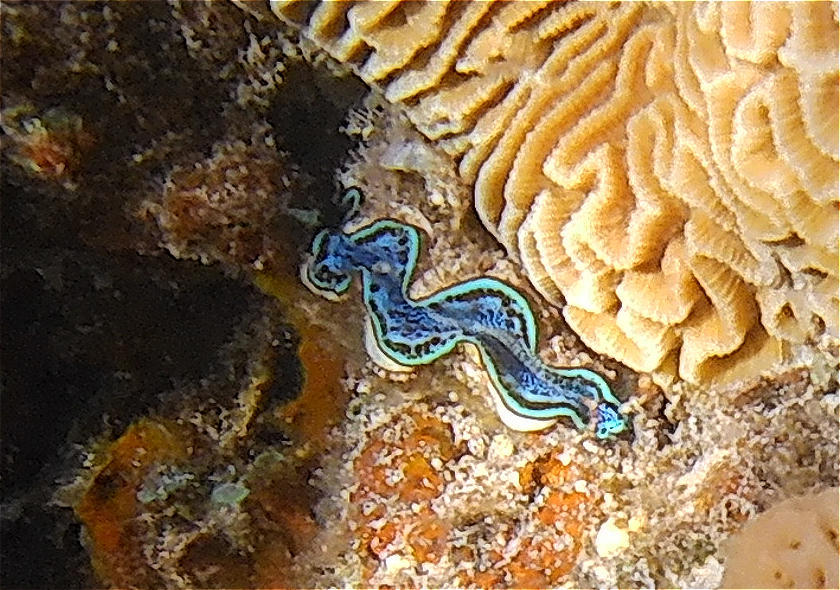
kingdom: Animalia
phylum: Mollusca
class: Bivalvia
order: Cardiida
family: Cardiidae
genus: Tridacna
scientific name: Tridacna maxima
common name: Small giant clam
